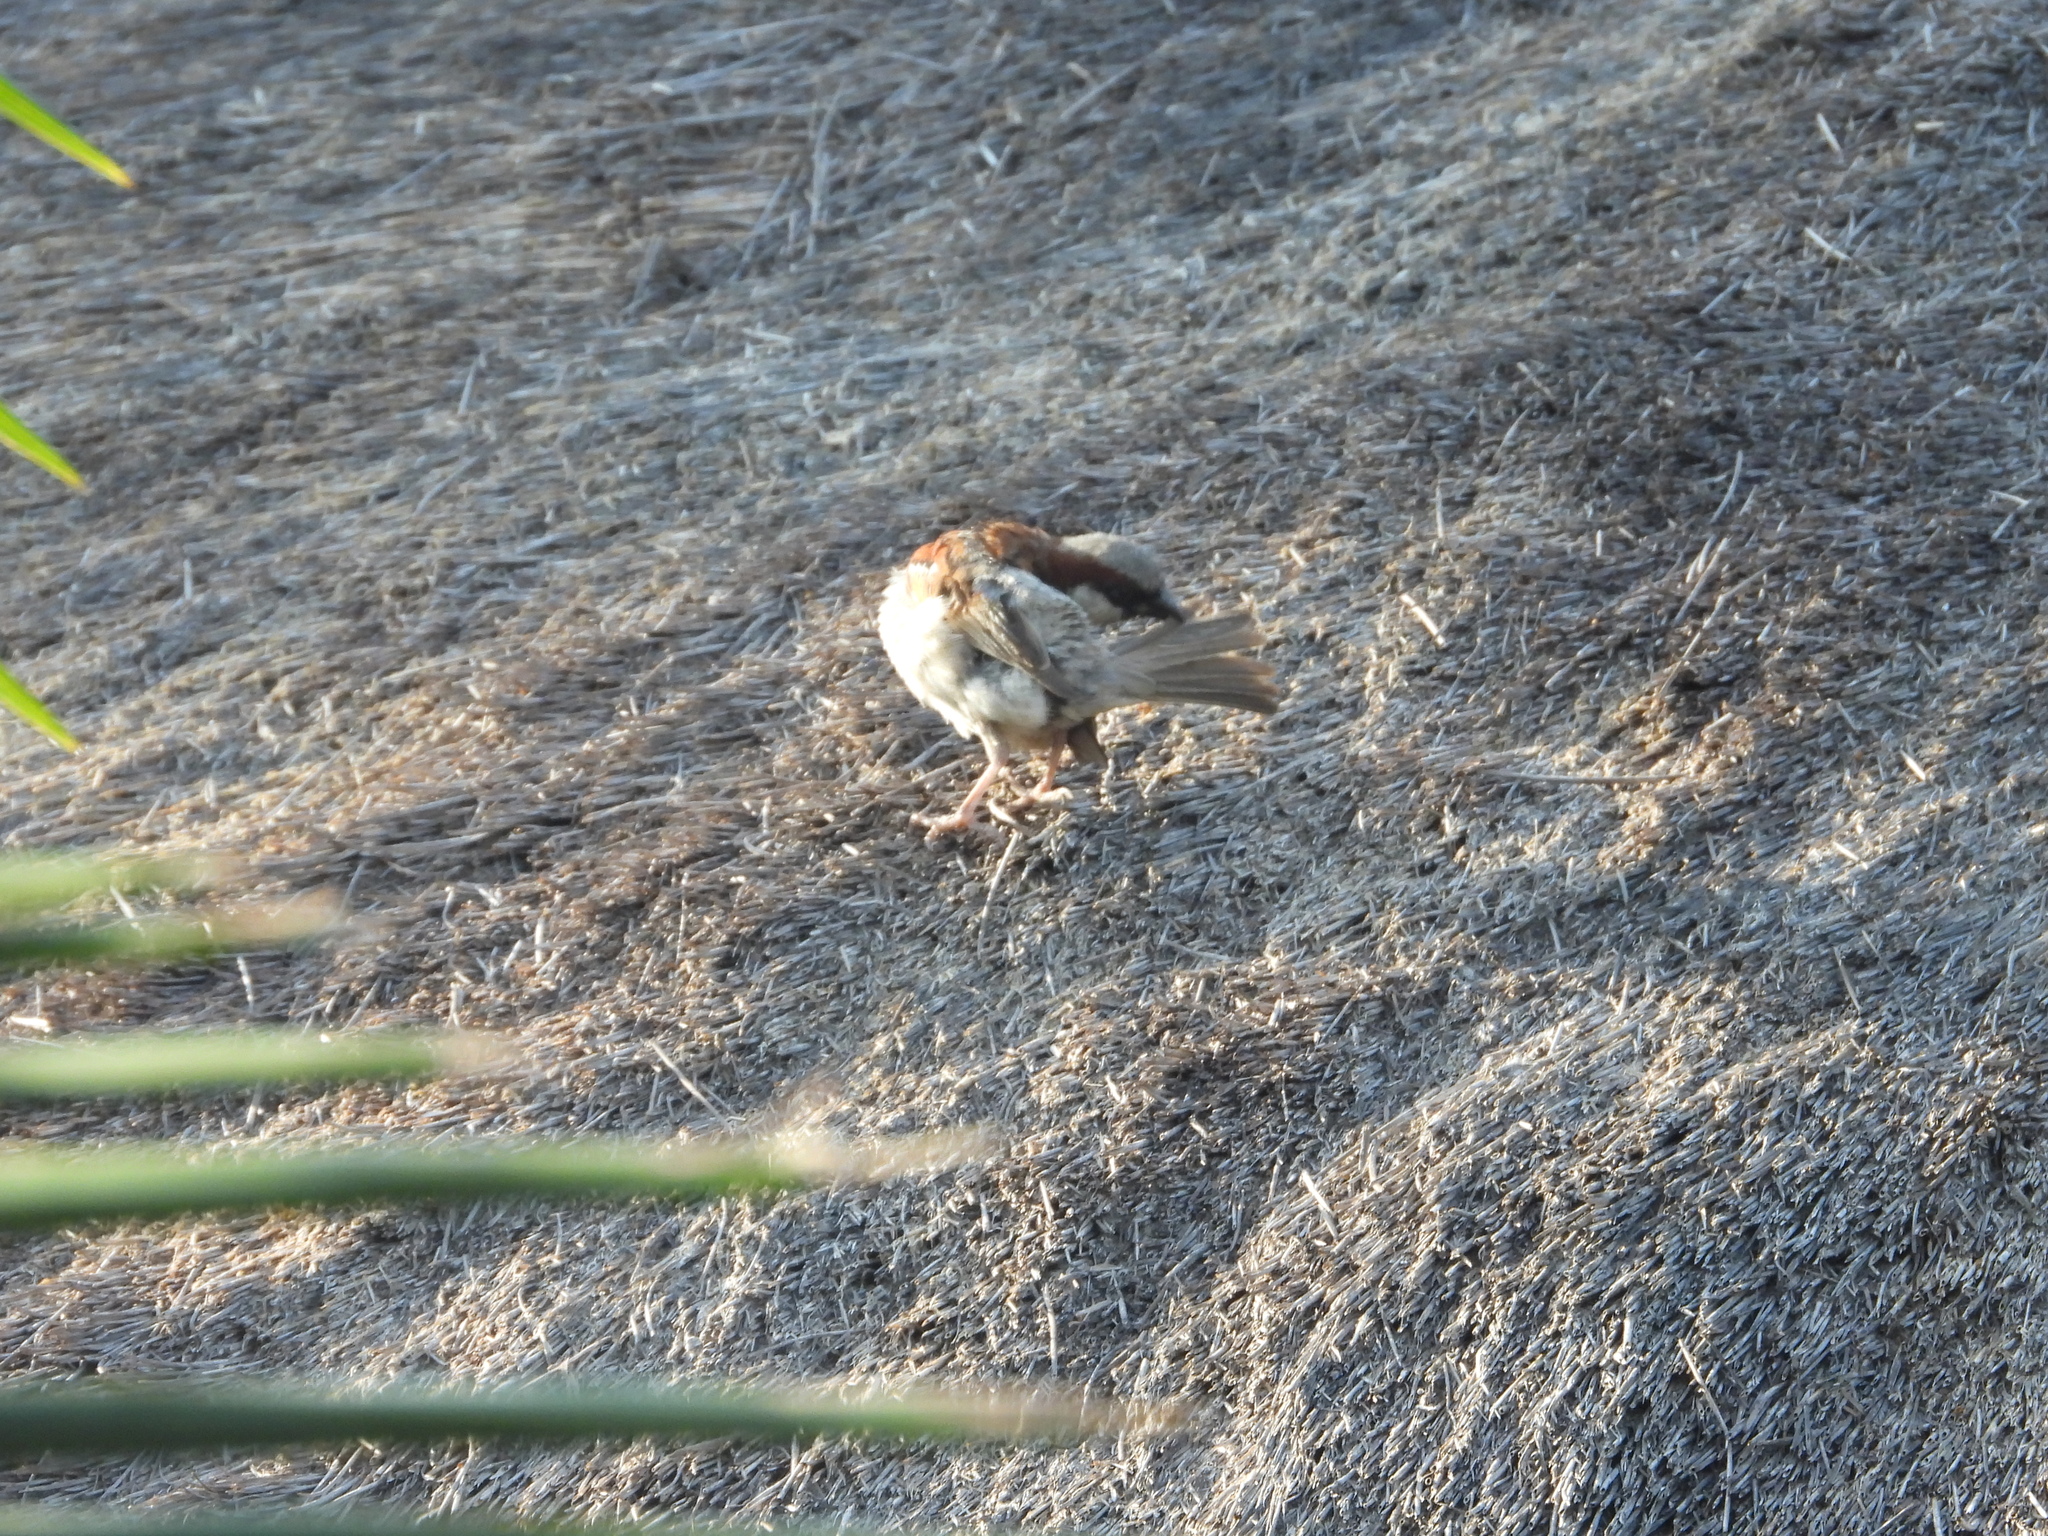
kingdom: Animalia
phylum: Chordata
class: Aves
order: Passeriformes
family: Passeridae
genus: Passer
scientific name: Passer domesticus
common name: House sparrow
